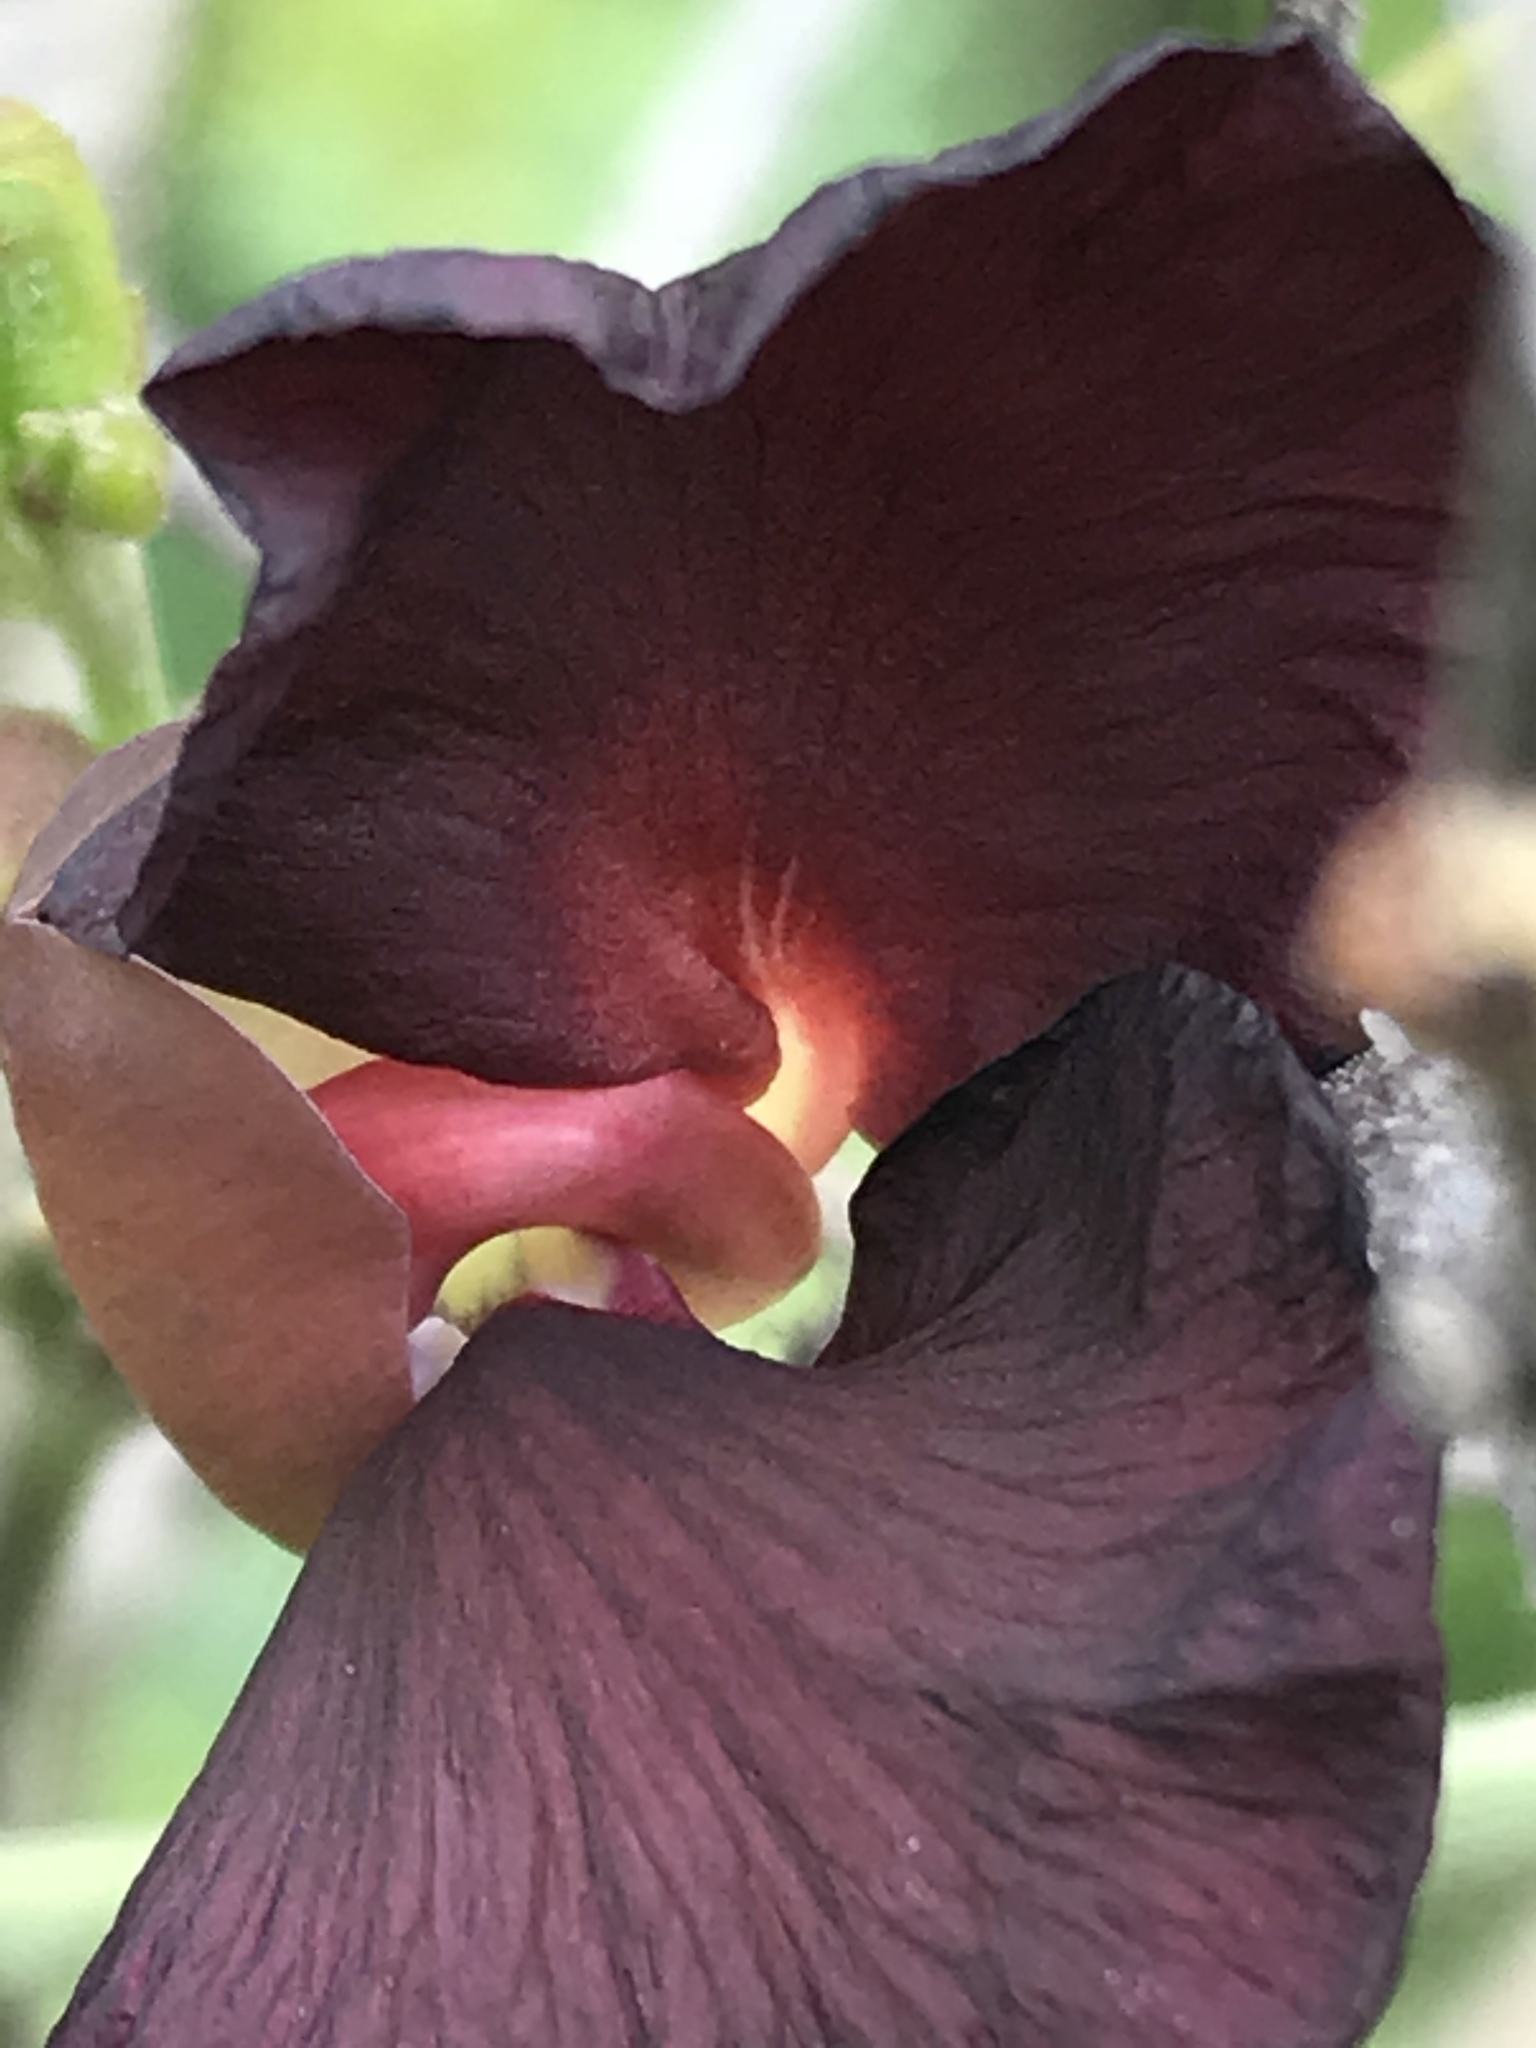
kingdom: Plantae
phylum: Tracheophyta
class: Magnoliopsida
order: Fabales
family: Fabaceae
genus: Macroptilium
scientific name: Macroptilium atropurpureum
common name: Purple bushbean
